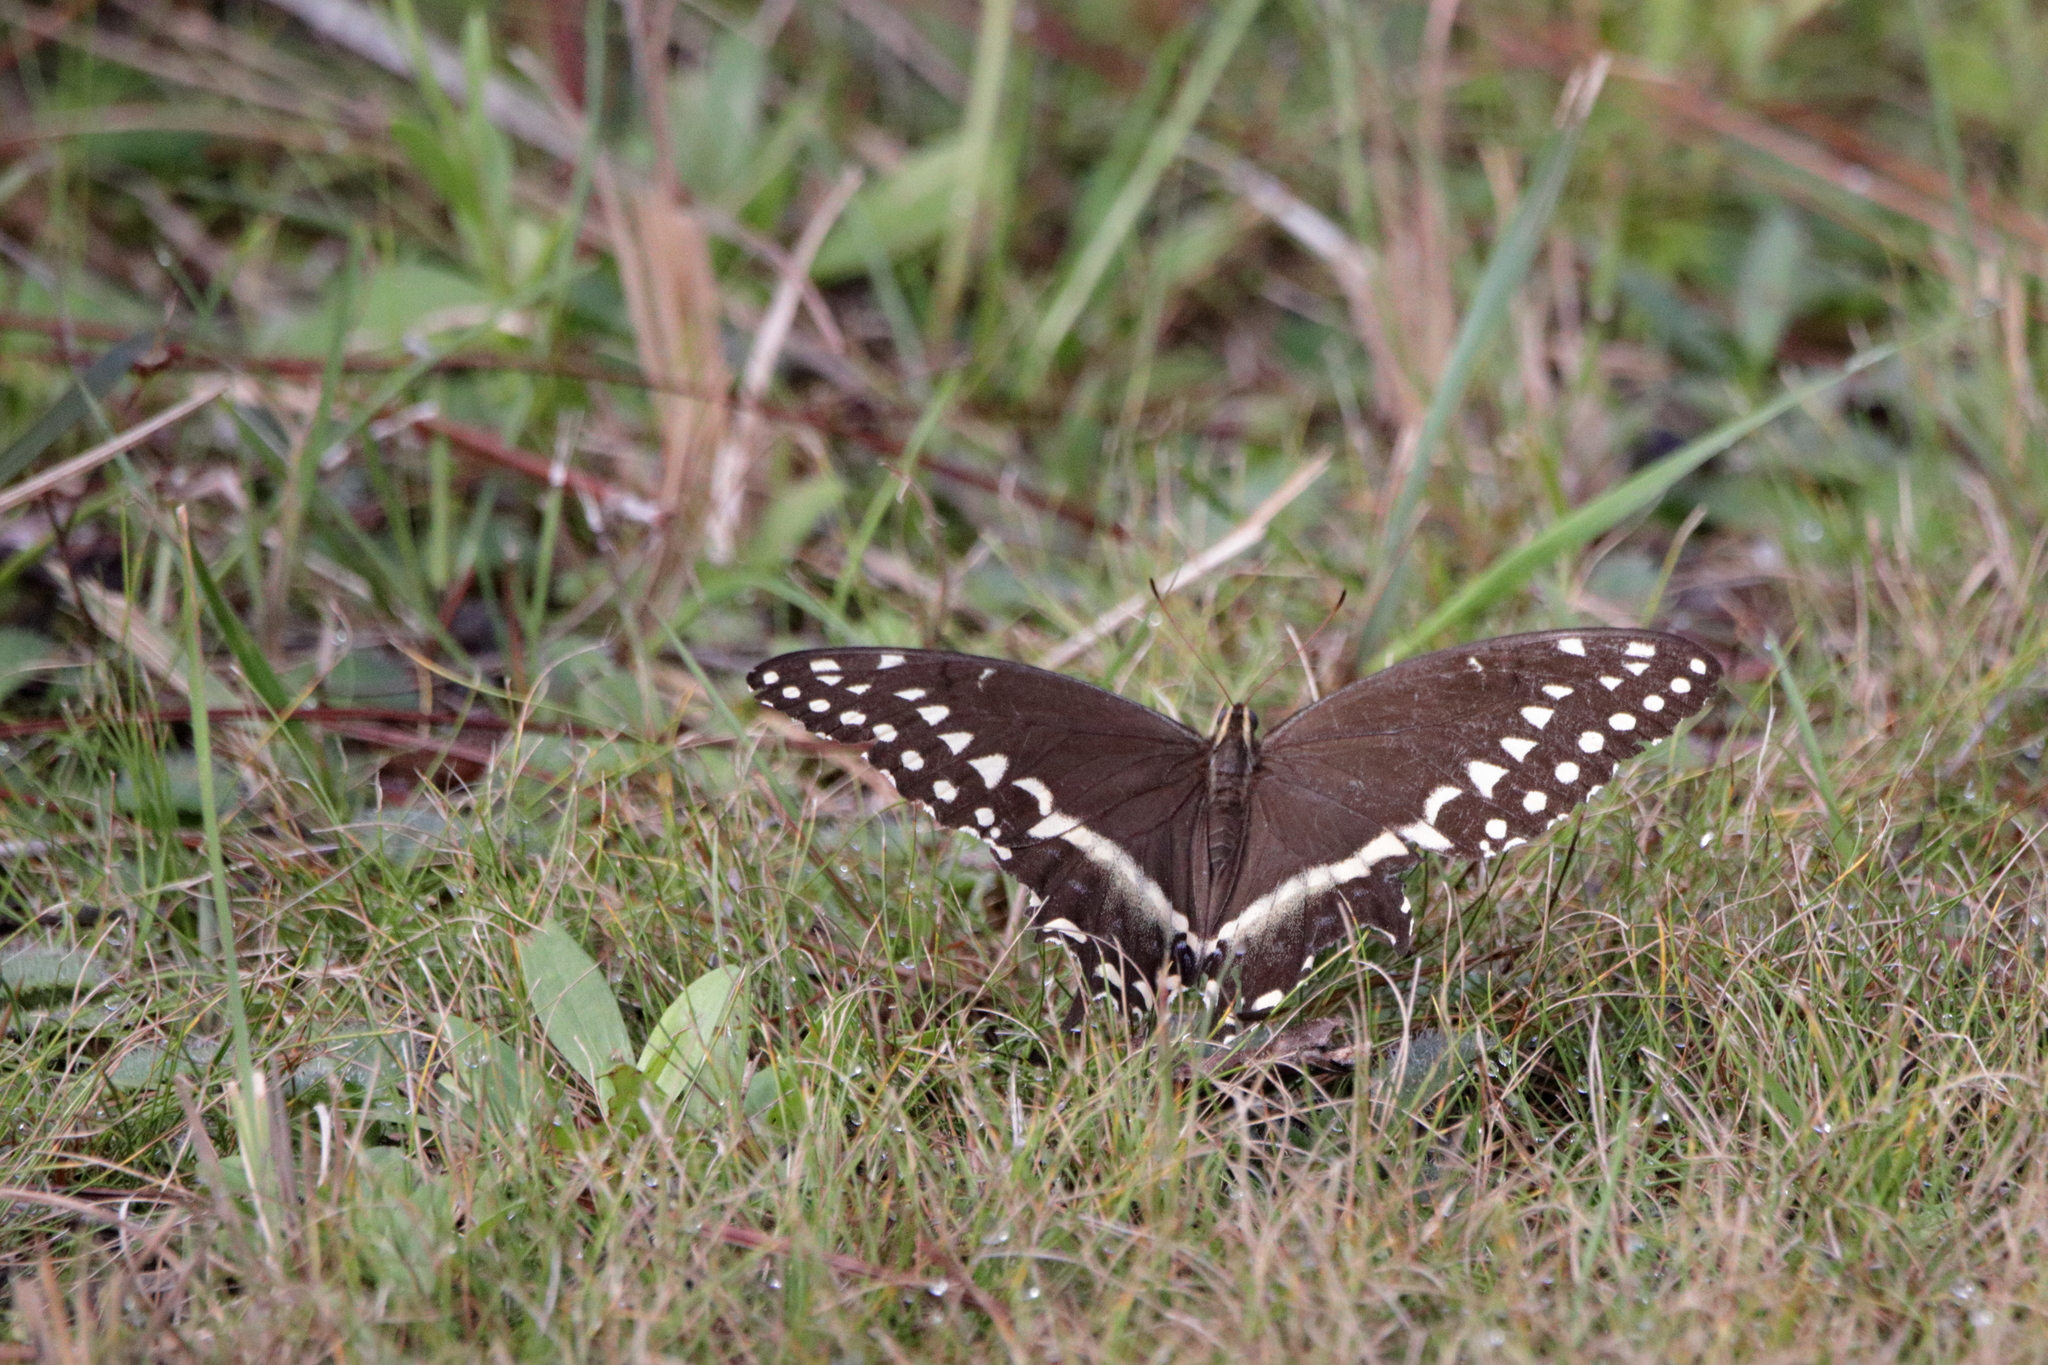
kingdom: Animalia
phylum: Arthropoda
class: Insecta
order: Lepidoptera
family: Papilionidae
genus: Papilio
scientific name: Papilio palamedes
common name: Palamedes swallowtail
